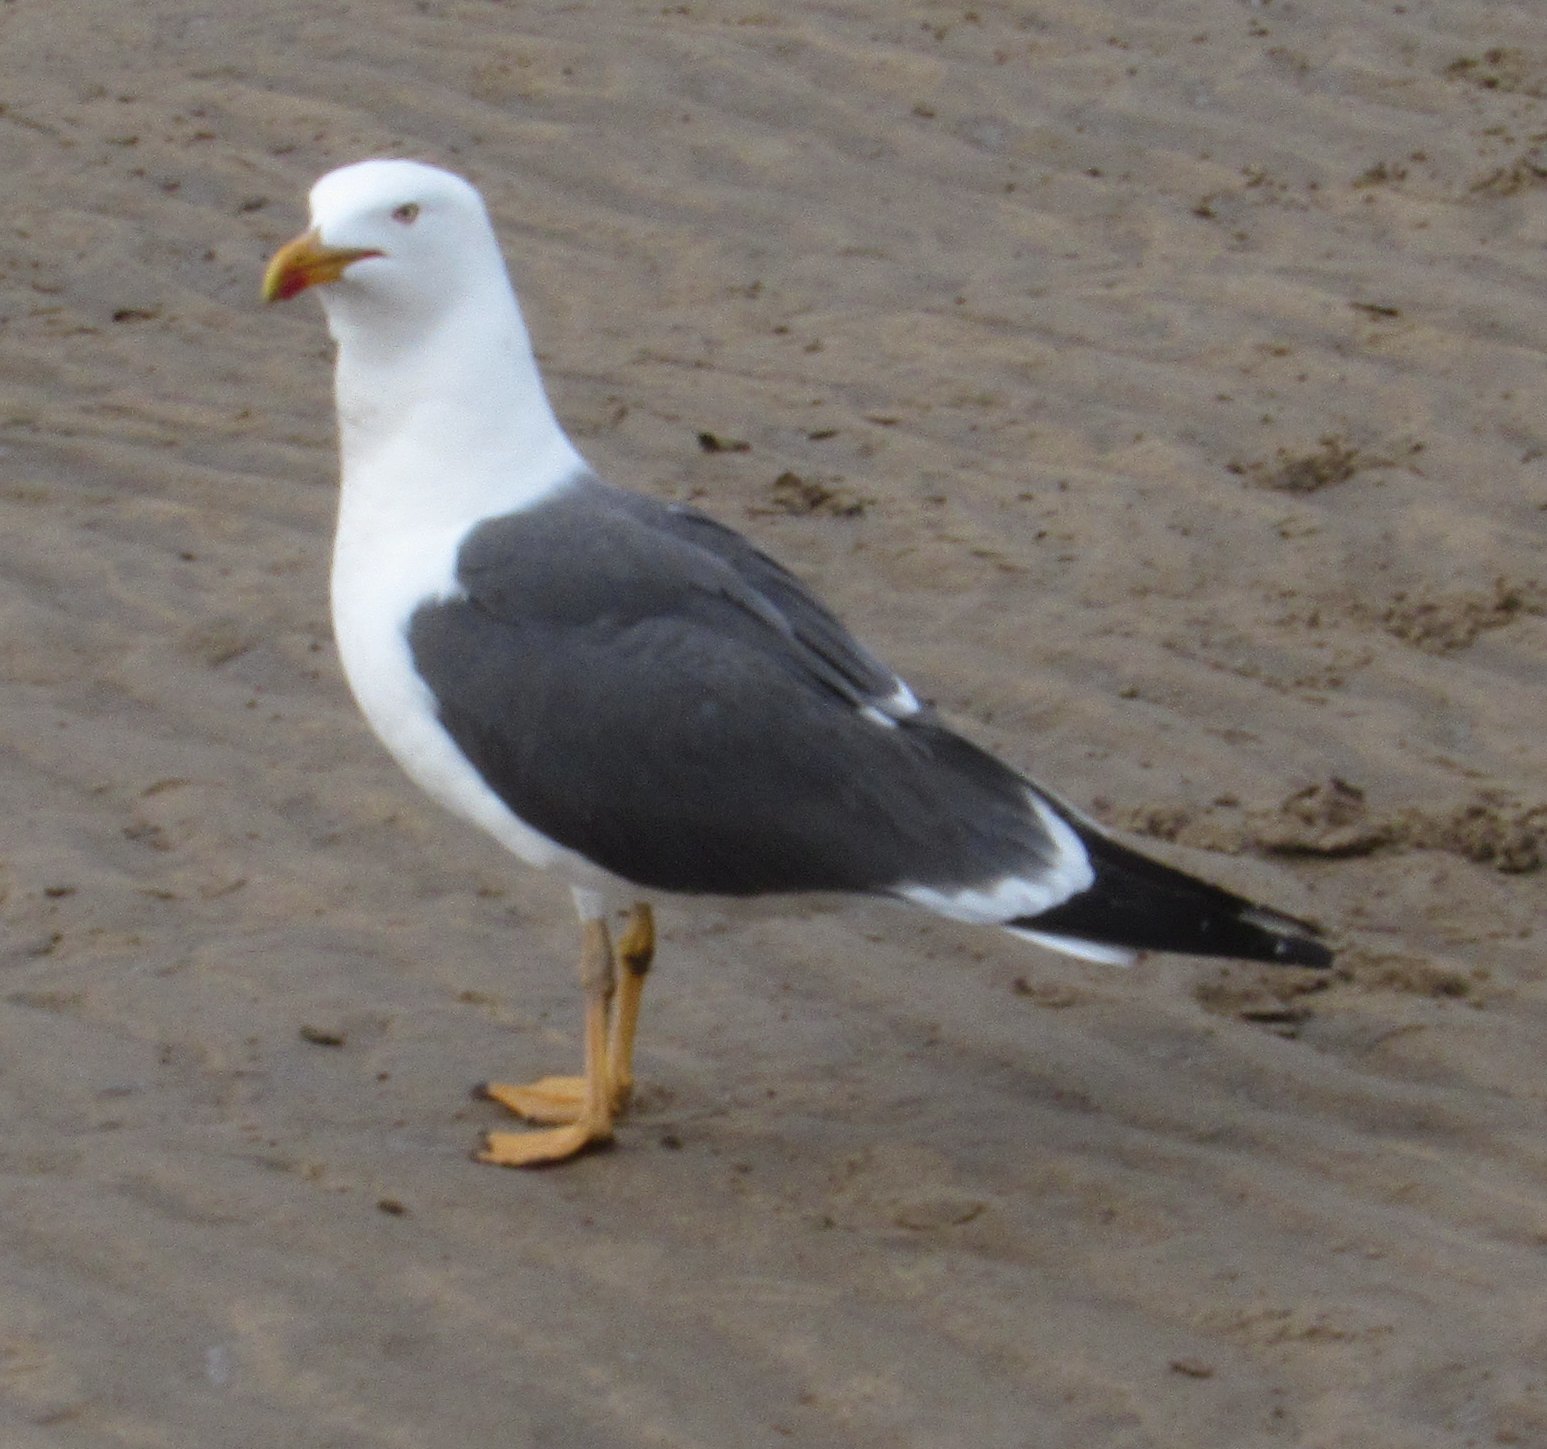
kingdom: Animalia
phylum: Chordata
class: Aves
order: Charadriiformes
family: Laridae
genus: Larus
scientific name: Larus fuscus
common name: Lesser black-backed gull
